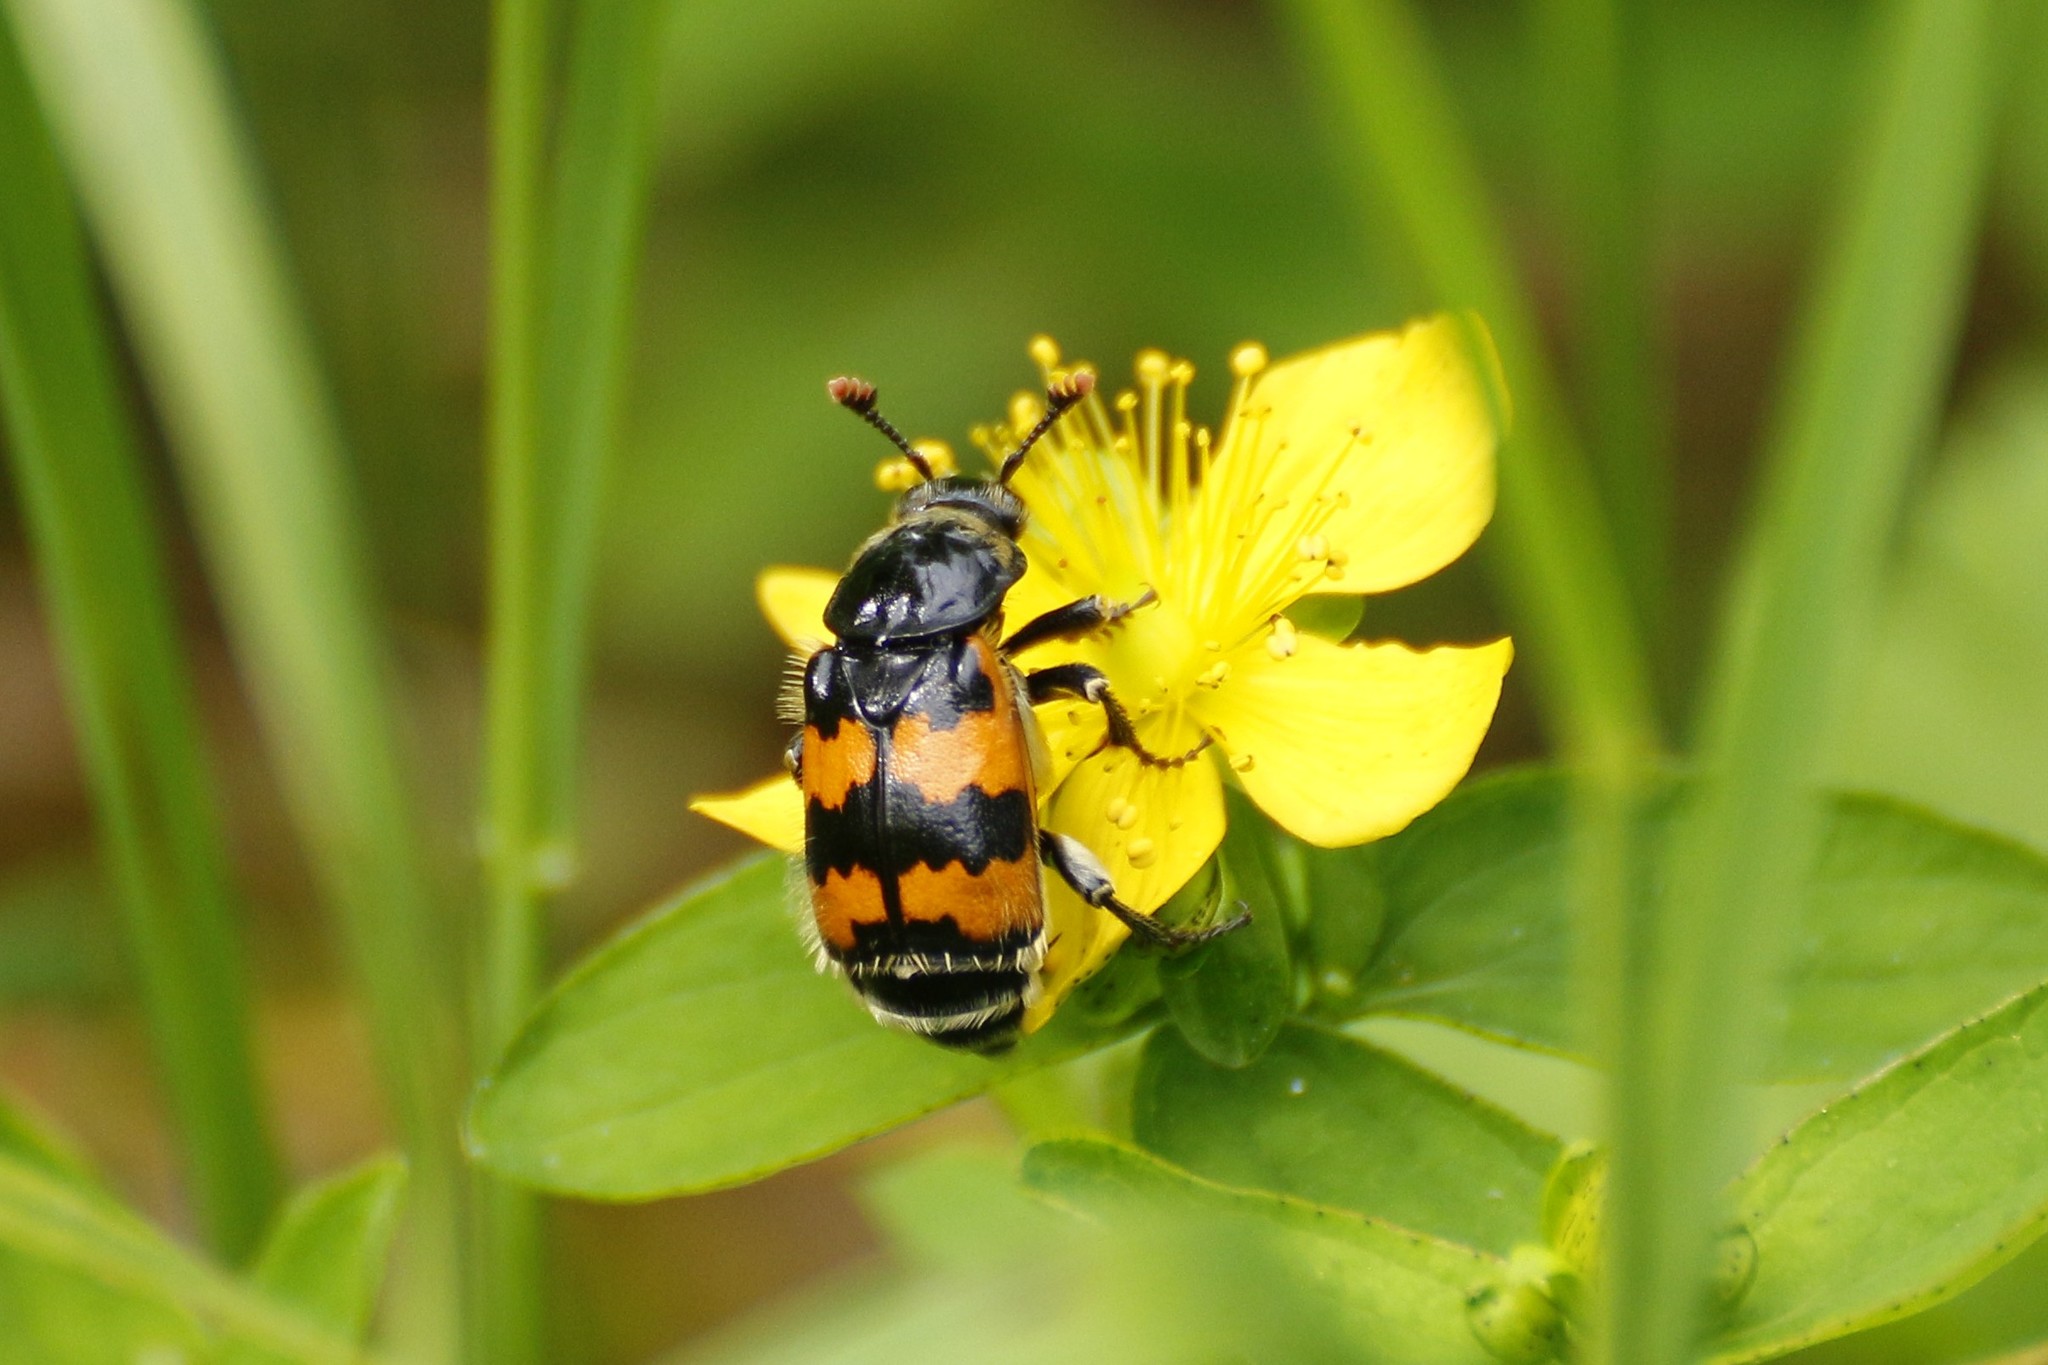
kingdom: Animalia
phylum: Arthropoda
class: Insecta
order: Coleoptera
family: Staphylinidae
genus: Nicrophorus
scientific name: Nicrophorus vespillo
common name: Common burying beetle
